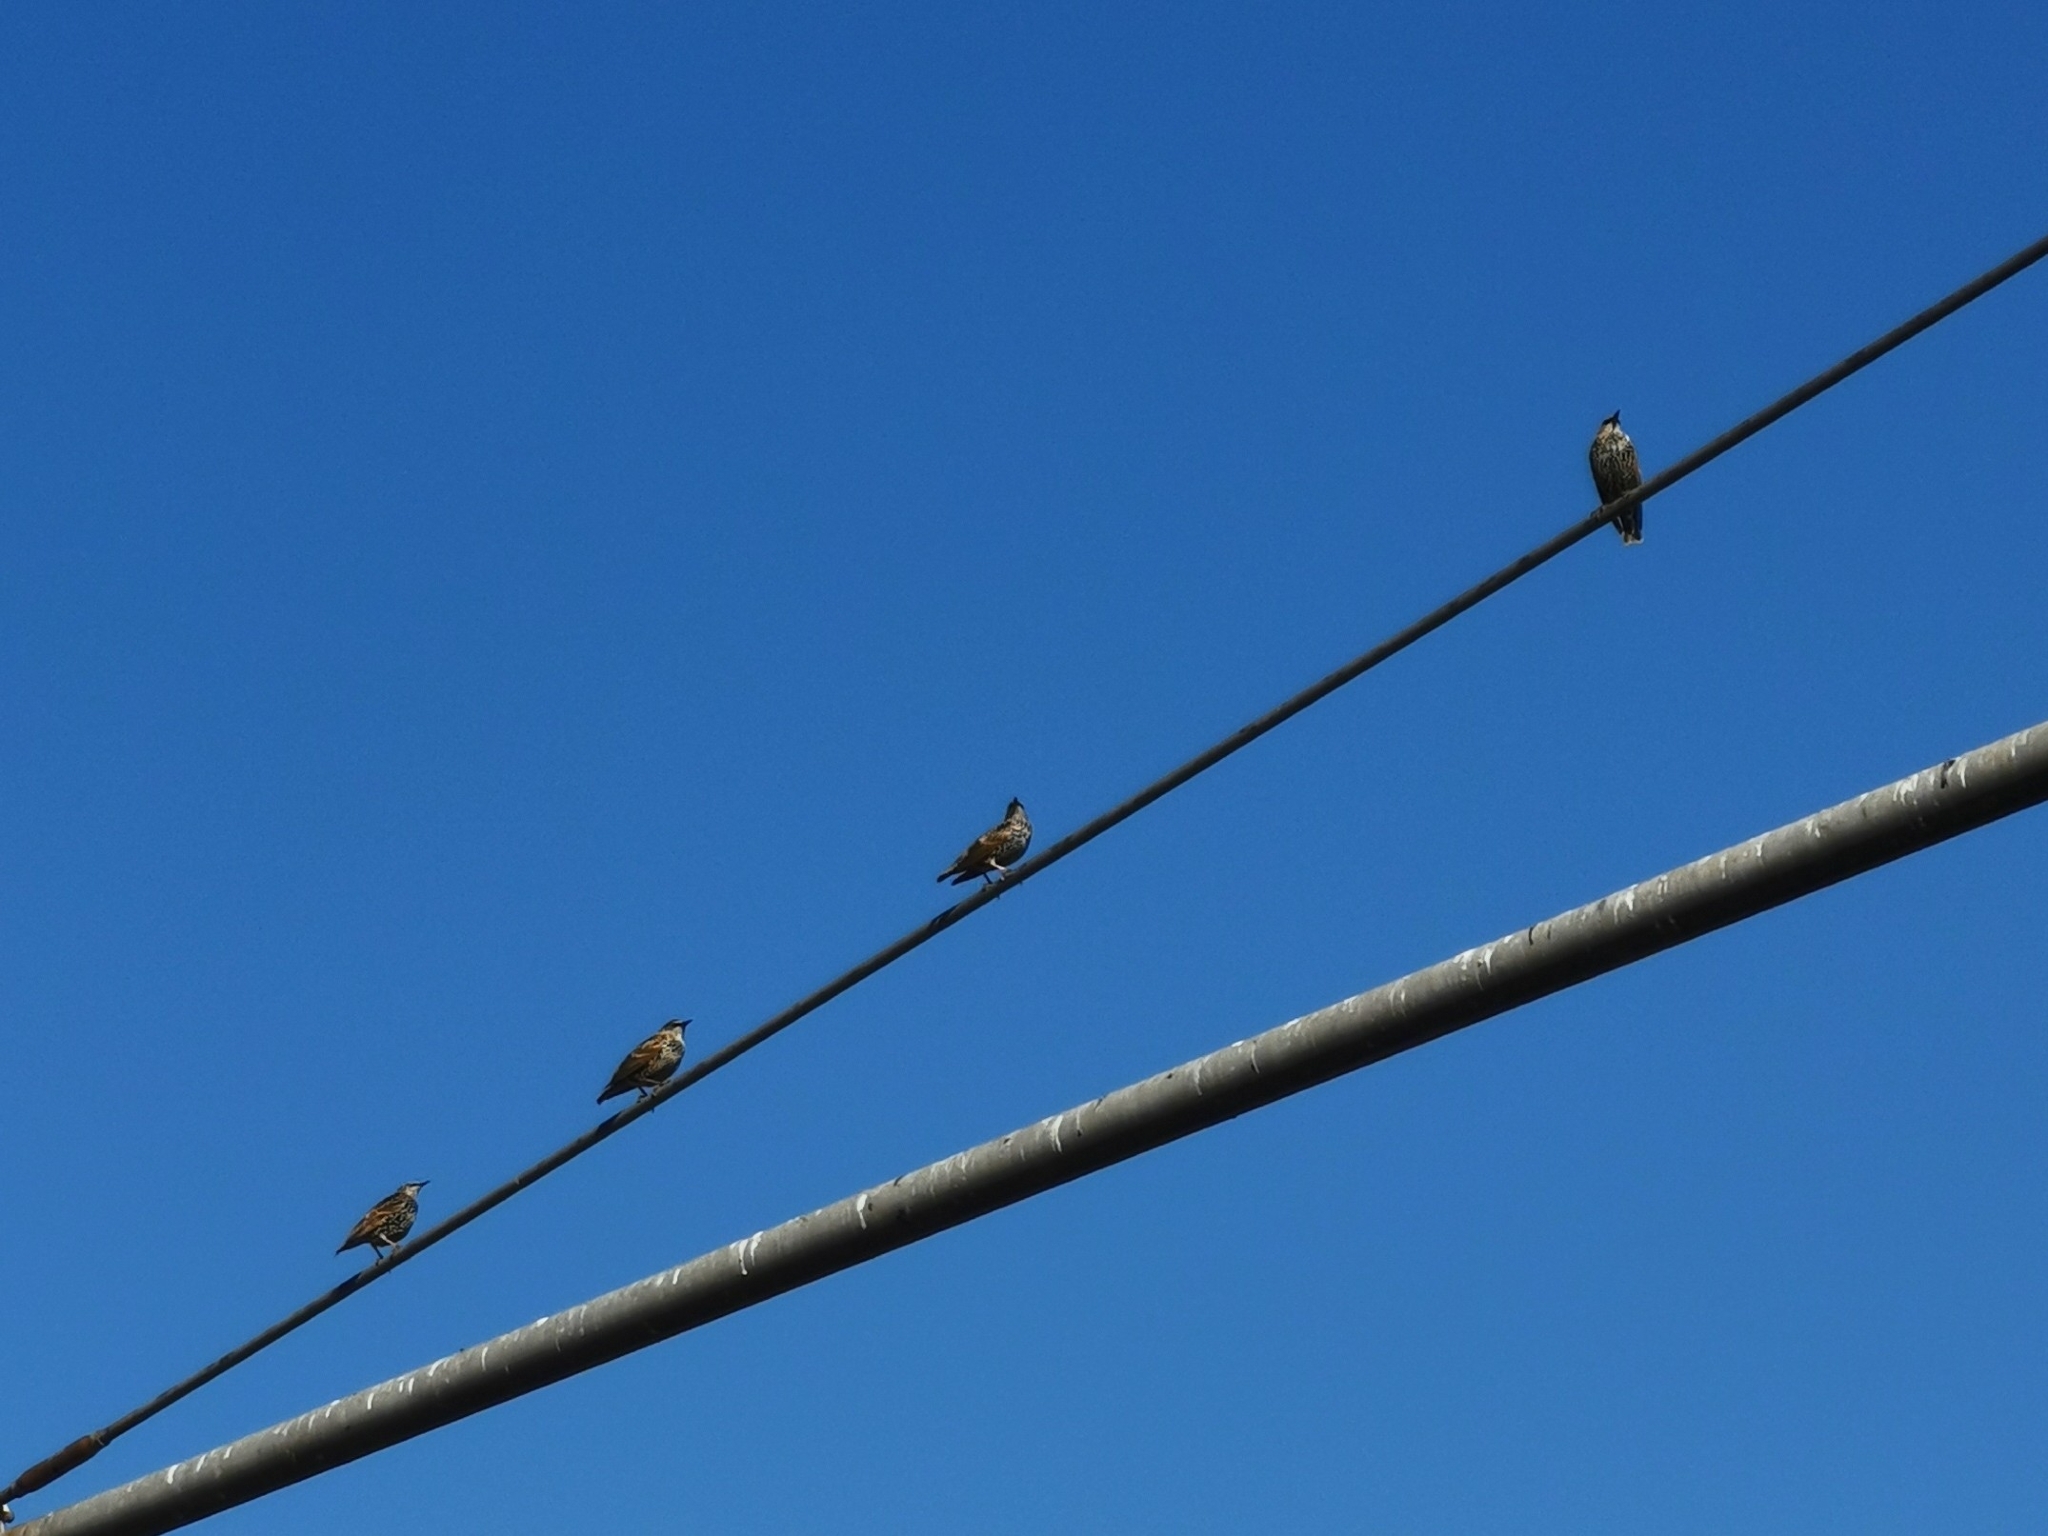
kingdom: Animalia
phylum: Chordata
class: Aves
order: Passeriformes
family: Sturnidae
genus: Sturnus
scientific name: Sturnus vulgaris
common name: Common starling
